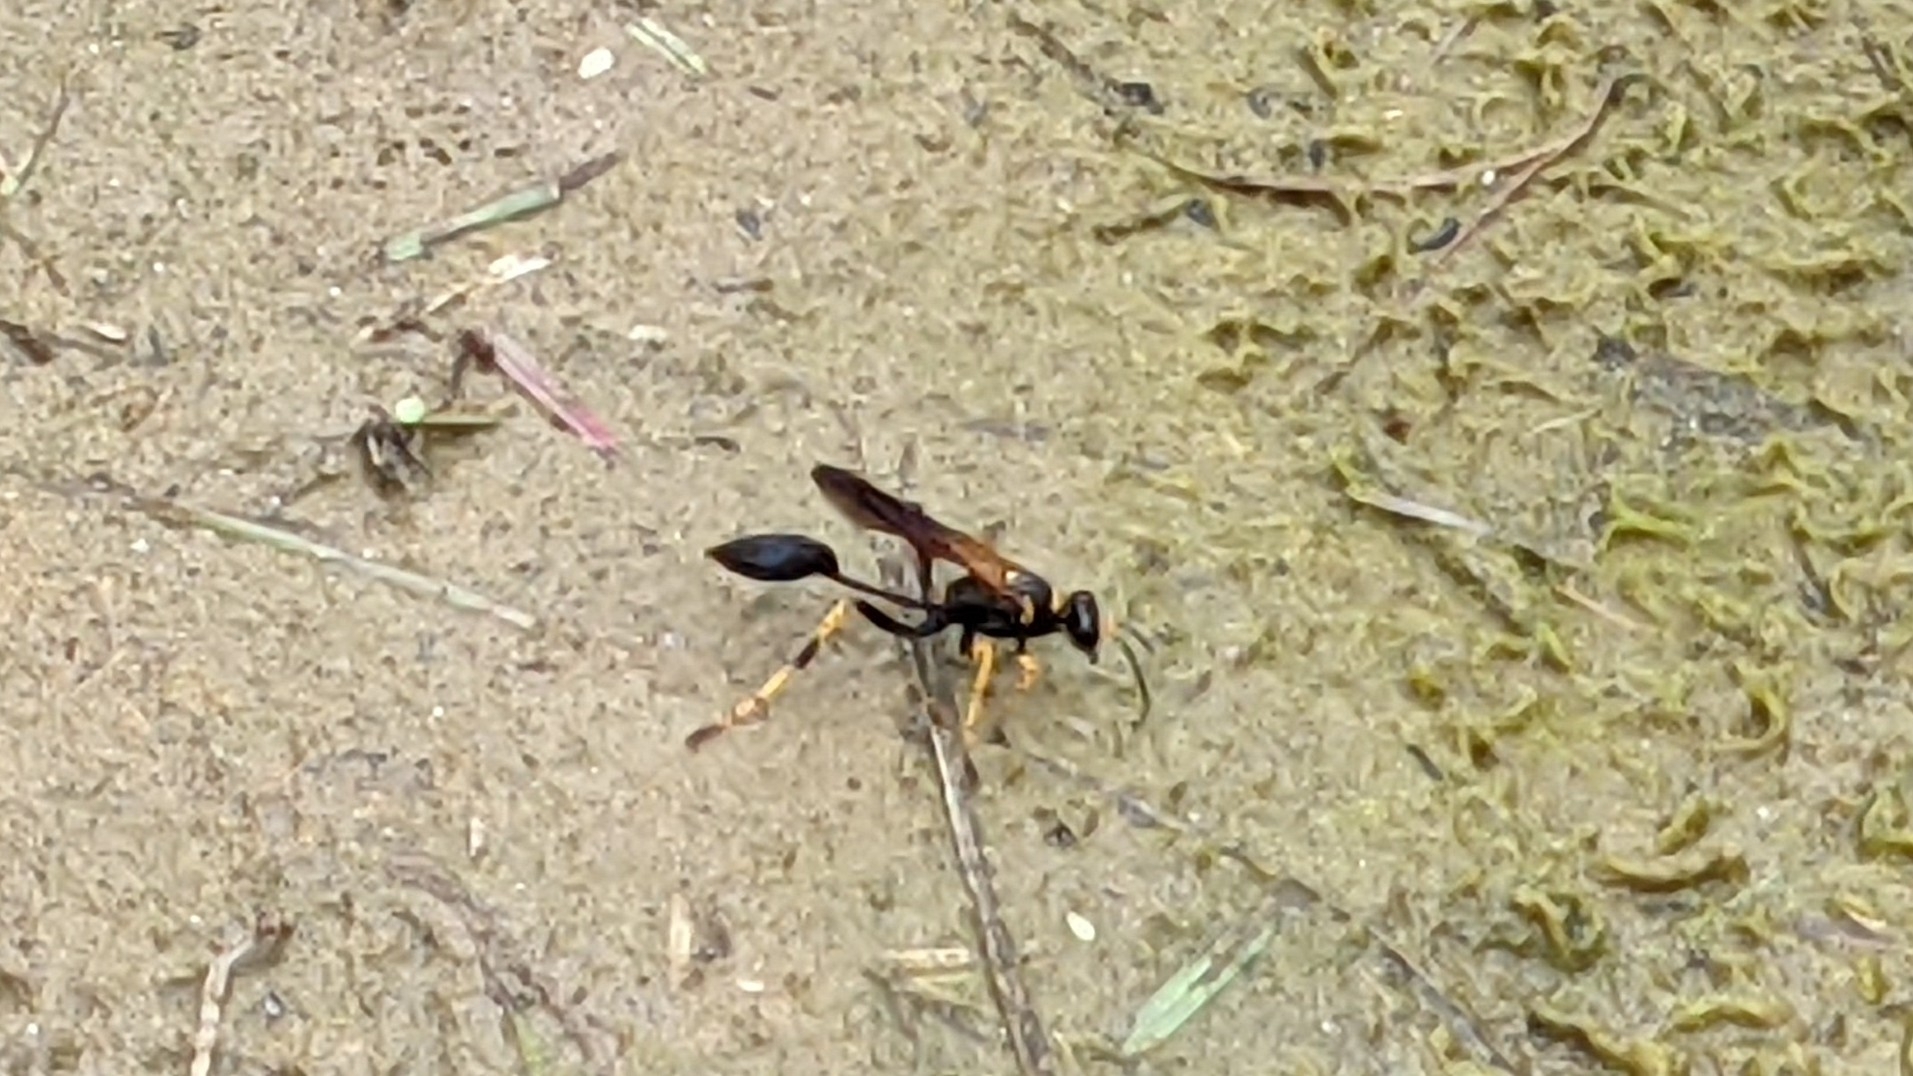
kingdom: Animalia
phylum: Arthropoda
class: Insecta
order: Hymenoptera
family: Sphecidae
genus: Sceliphron
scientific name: Sceliphron caementarium
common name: Mud dauber
